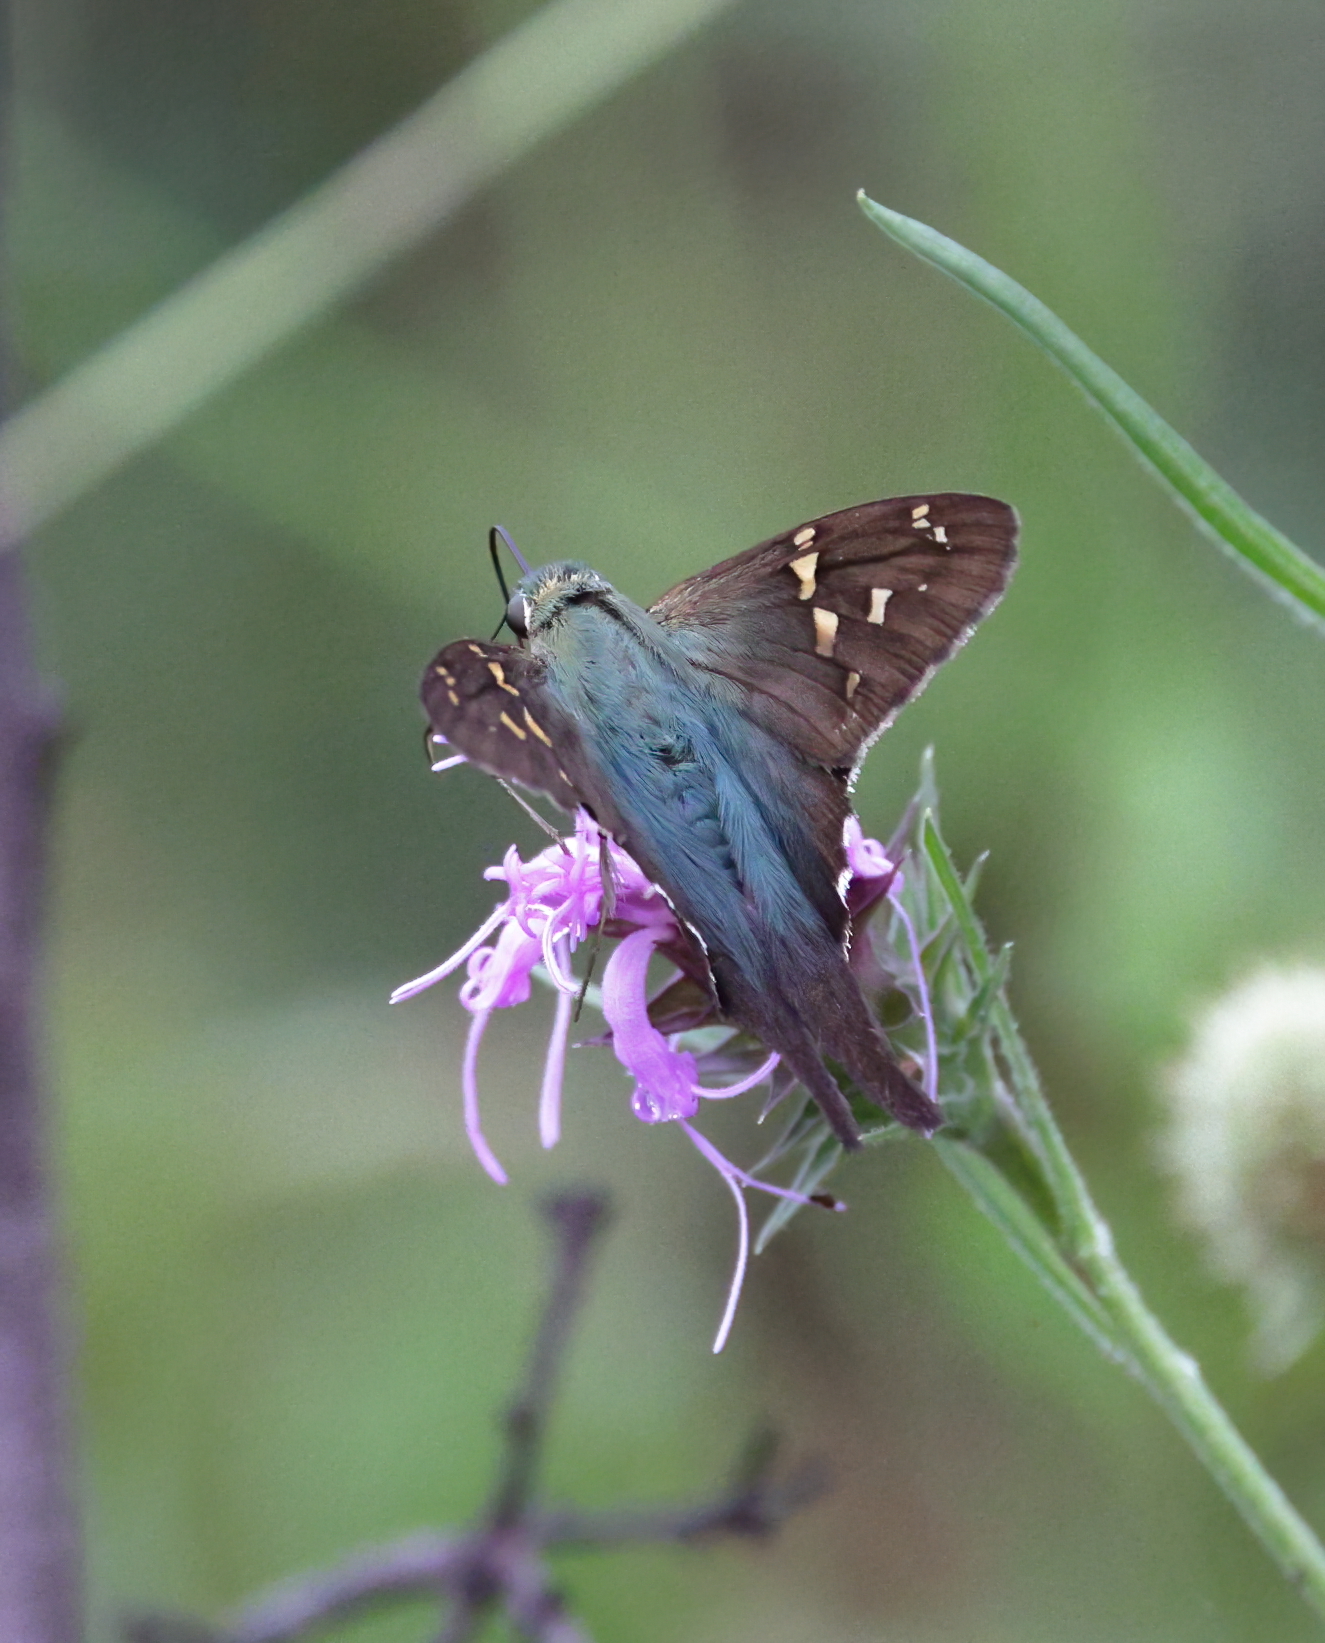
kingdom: Animalia
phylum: Arthropoda
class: Insecta
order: Lepidoptera
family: Hesperiidae
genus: Urbanus
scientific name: Urbanus proteus
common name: Long-tailed skipper
